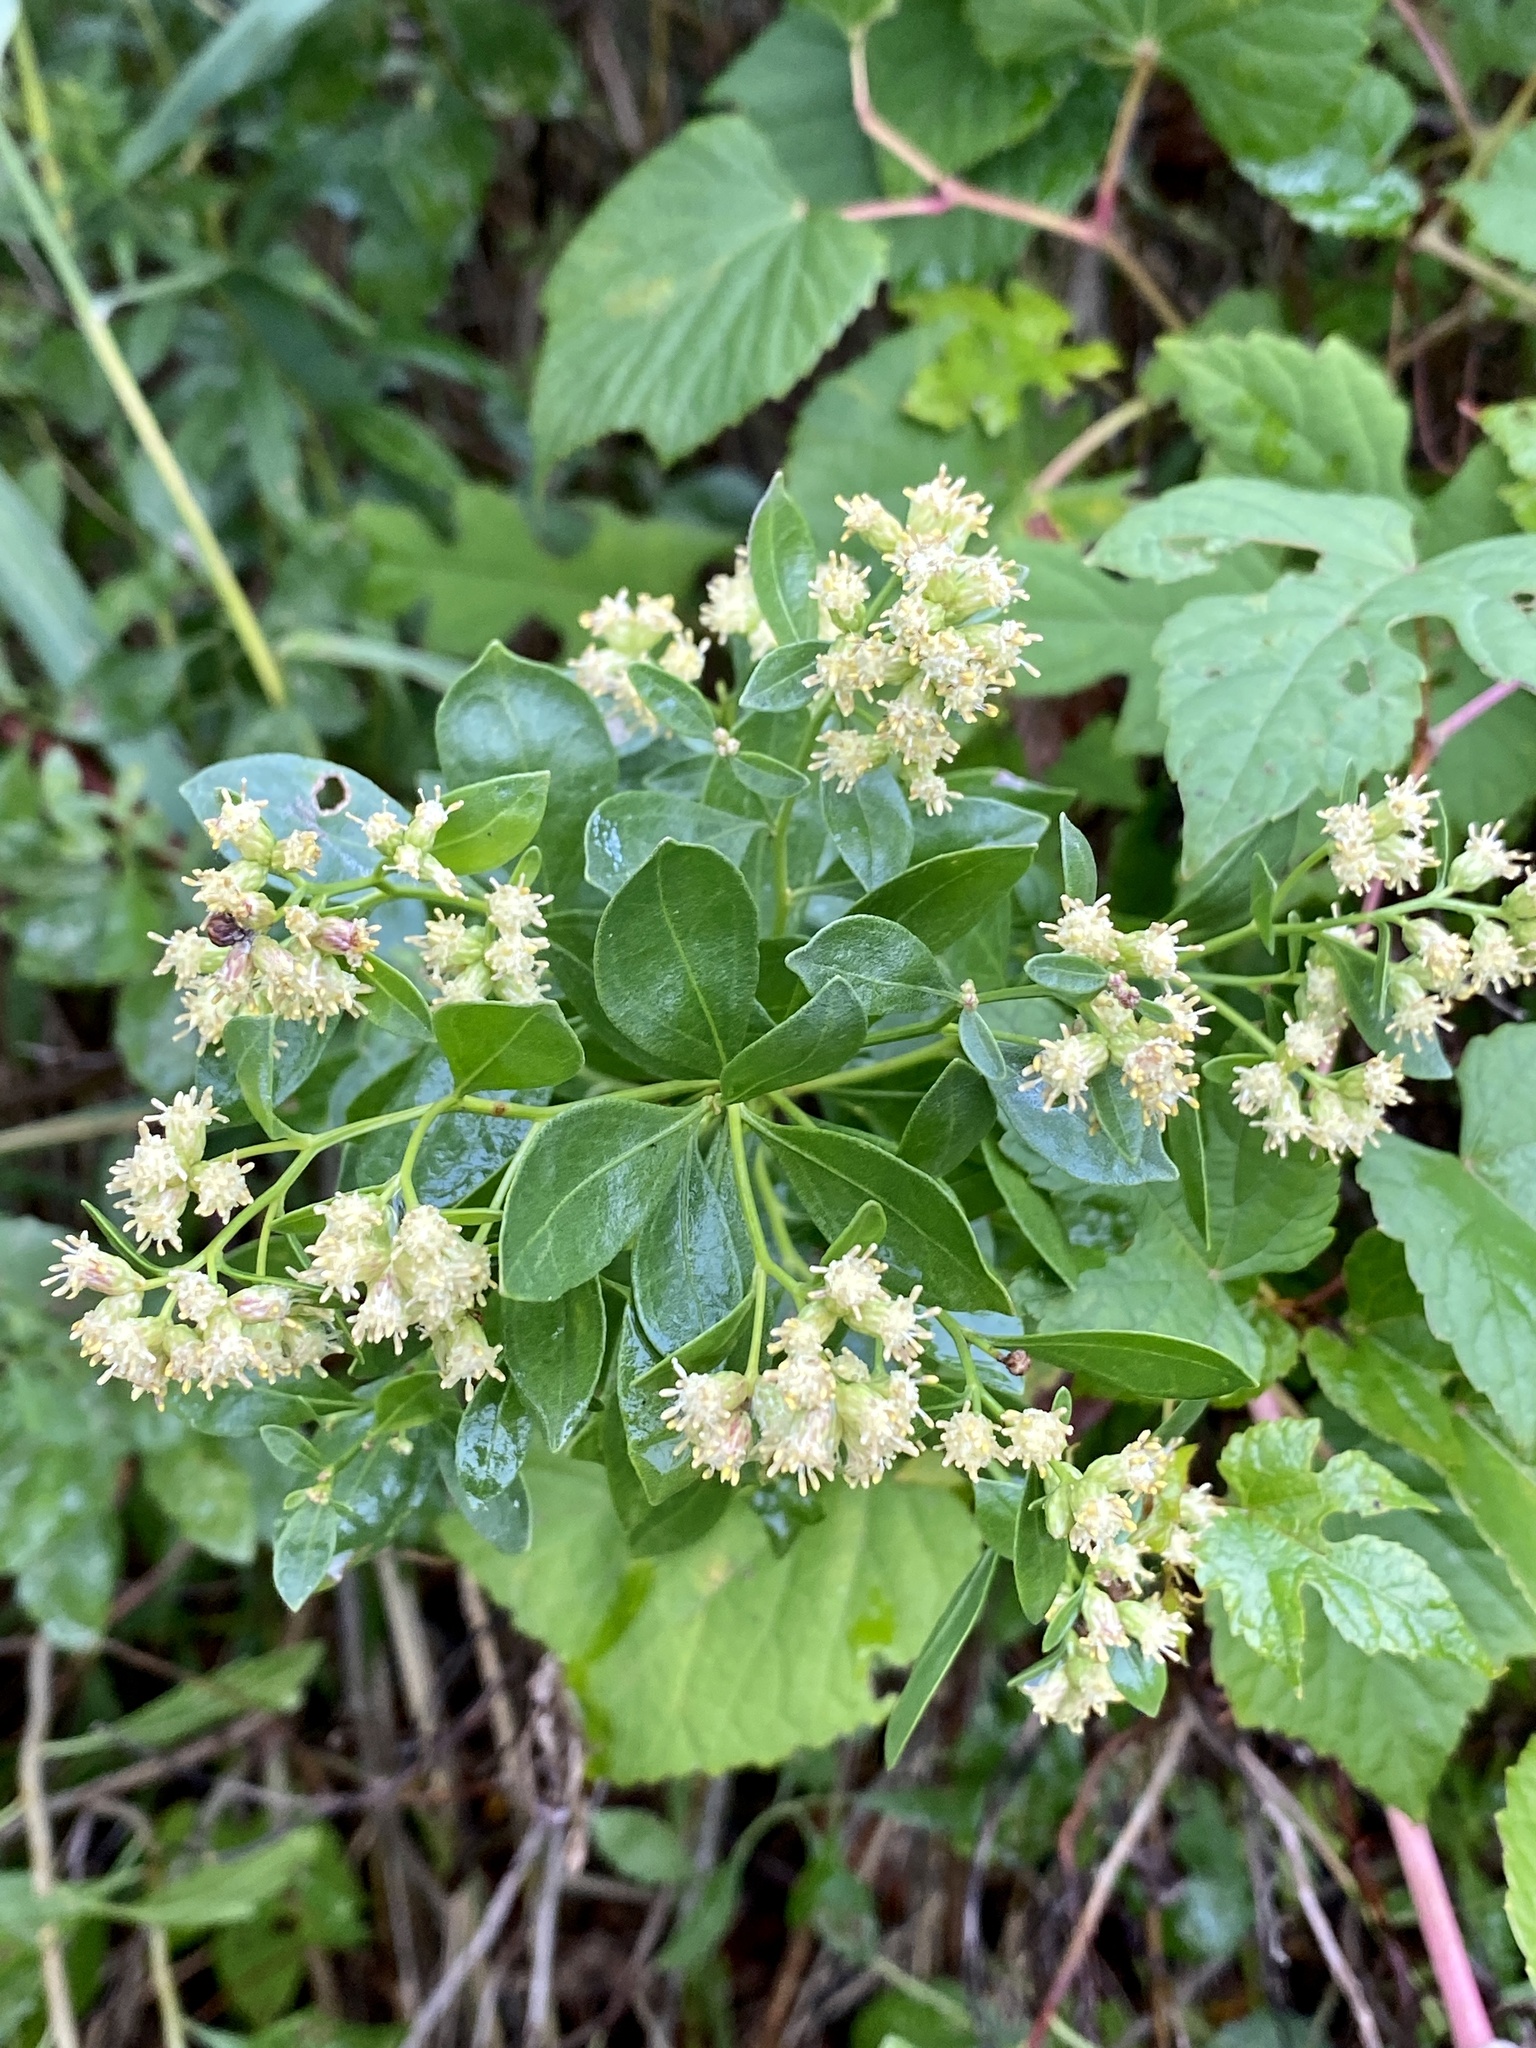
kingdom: Plantae
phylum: Tracheophyta
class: Magnoliopsida
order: Asterales
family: Asteraceae
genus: Baccharis
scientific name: Baccharis halimifolia
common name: Eastern baccharis
